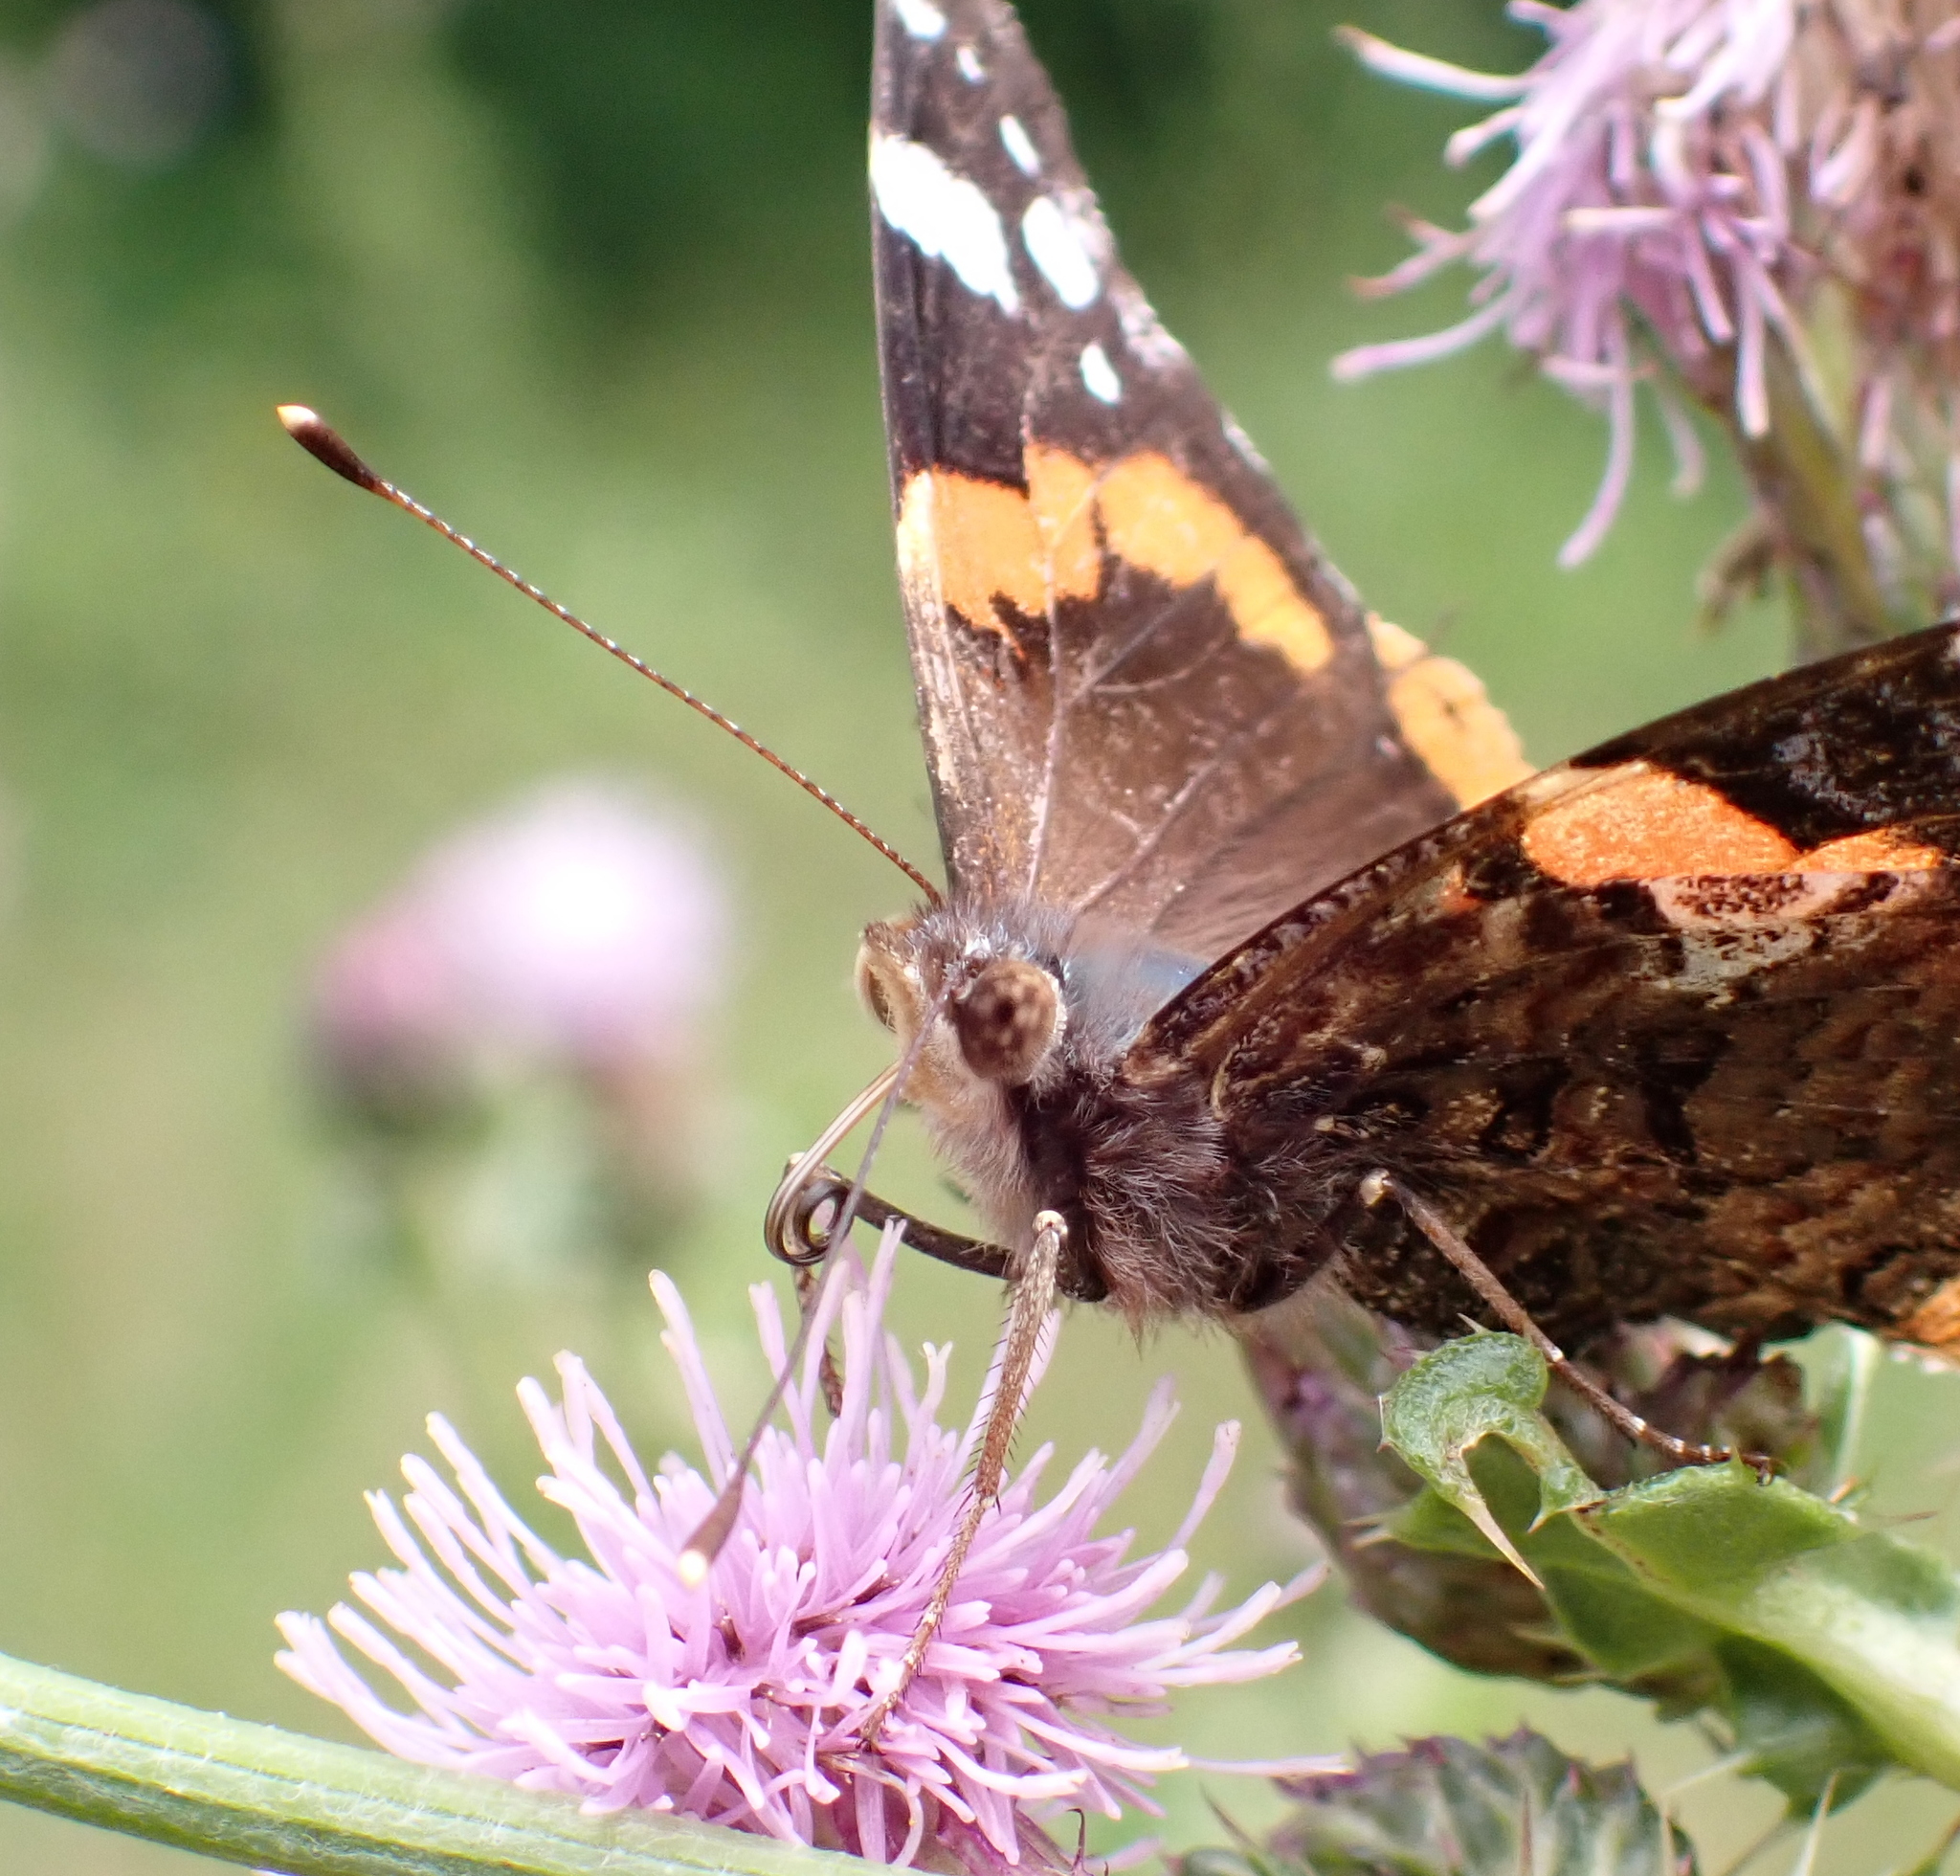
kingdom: Animalia
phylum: Arthropoda
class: Insecta
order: Lepidoptera
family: Nymphalidae
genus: Vanessa
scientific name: Vanessa atalanta
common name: Red admiral
